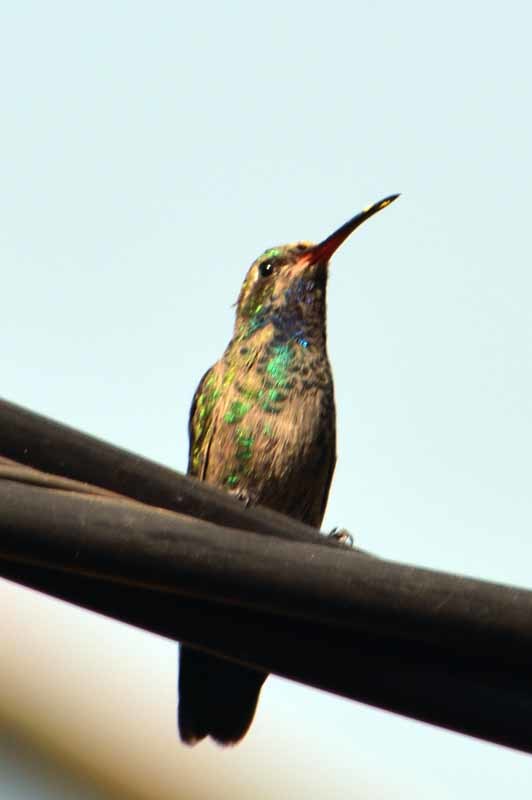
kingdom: Animalia
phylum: Chordata
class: Aves
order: Apodiformes
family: Trochilidae
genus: Cynanthus
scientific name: Cynanthus latirostris
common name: Broad-billed hummingbird
